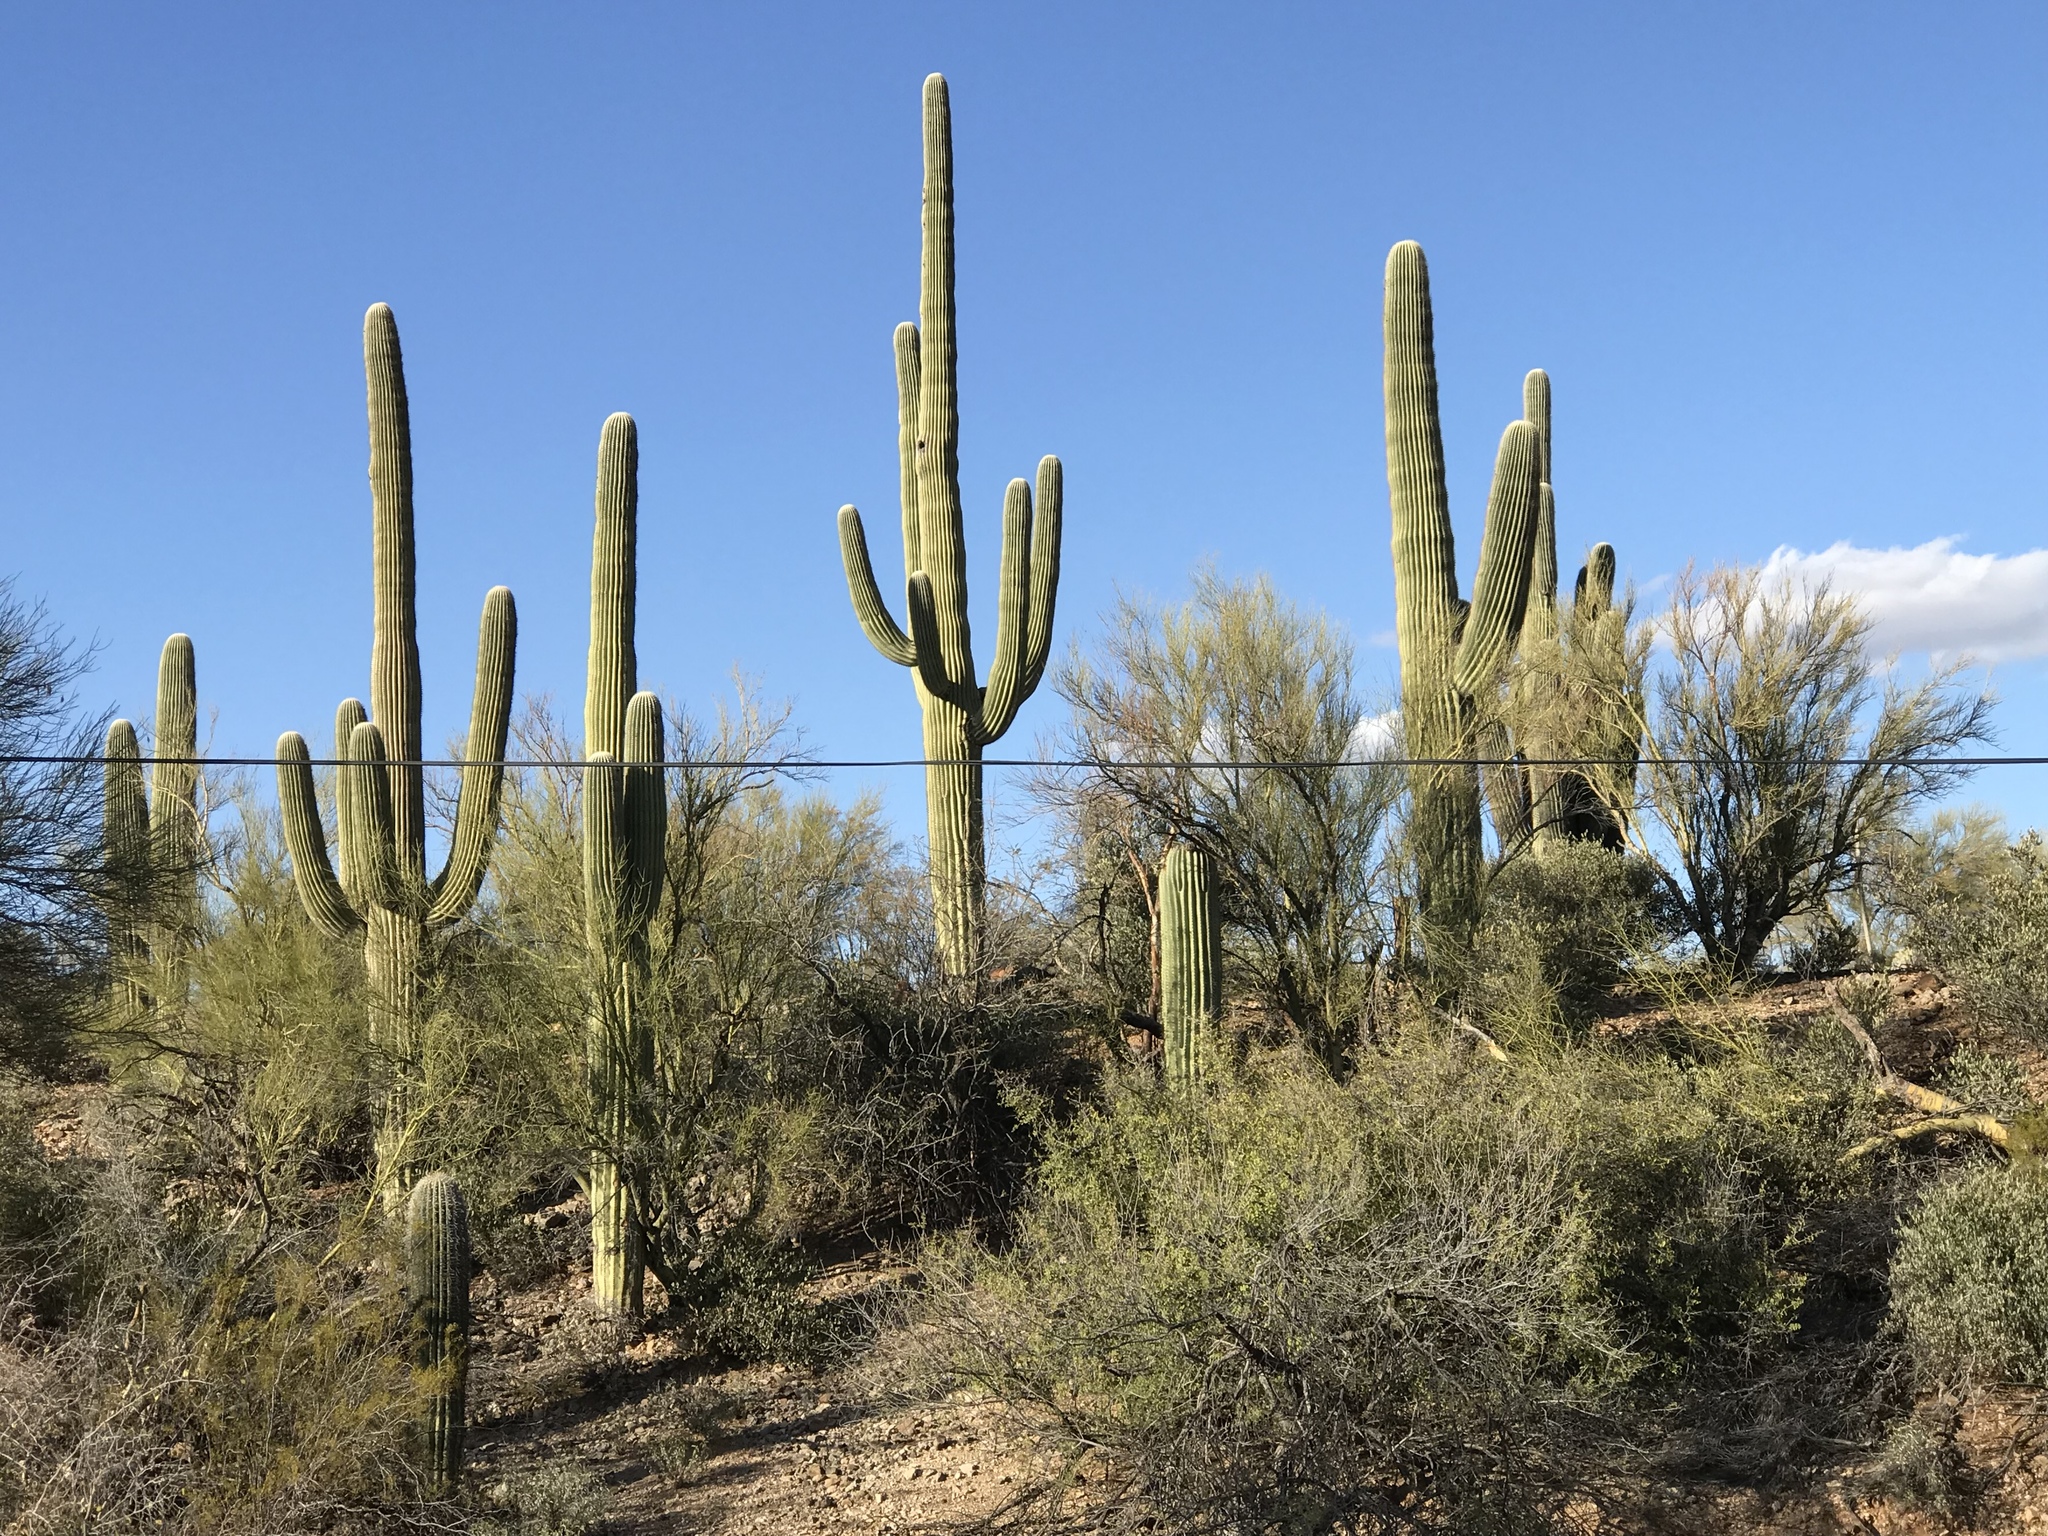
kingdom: Plantae
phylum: Tracheophyta
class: Magnoliopsida
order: Caryophyllales
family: Cactaceae
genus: Carnegiea
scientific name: Carnegiea gigantea
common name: Saguaro
